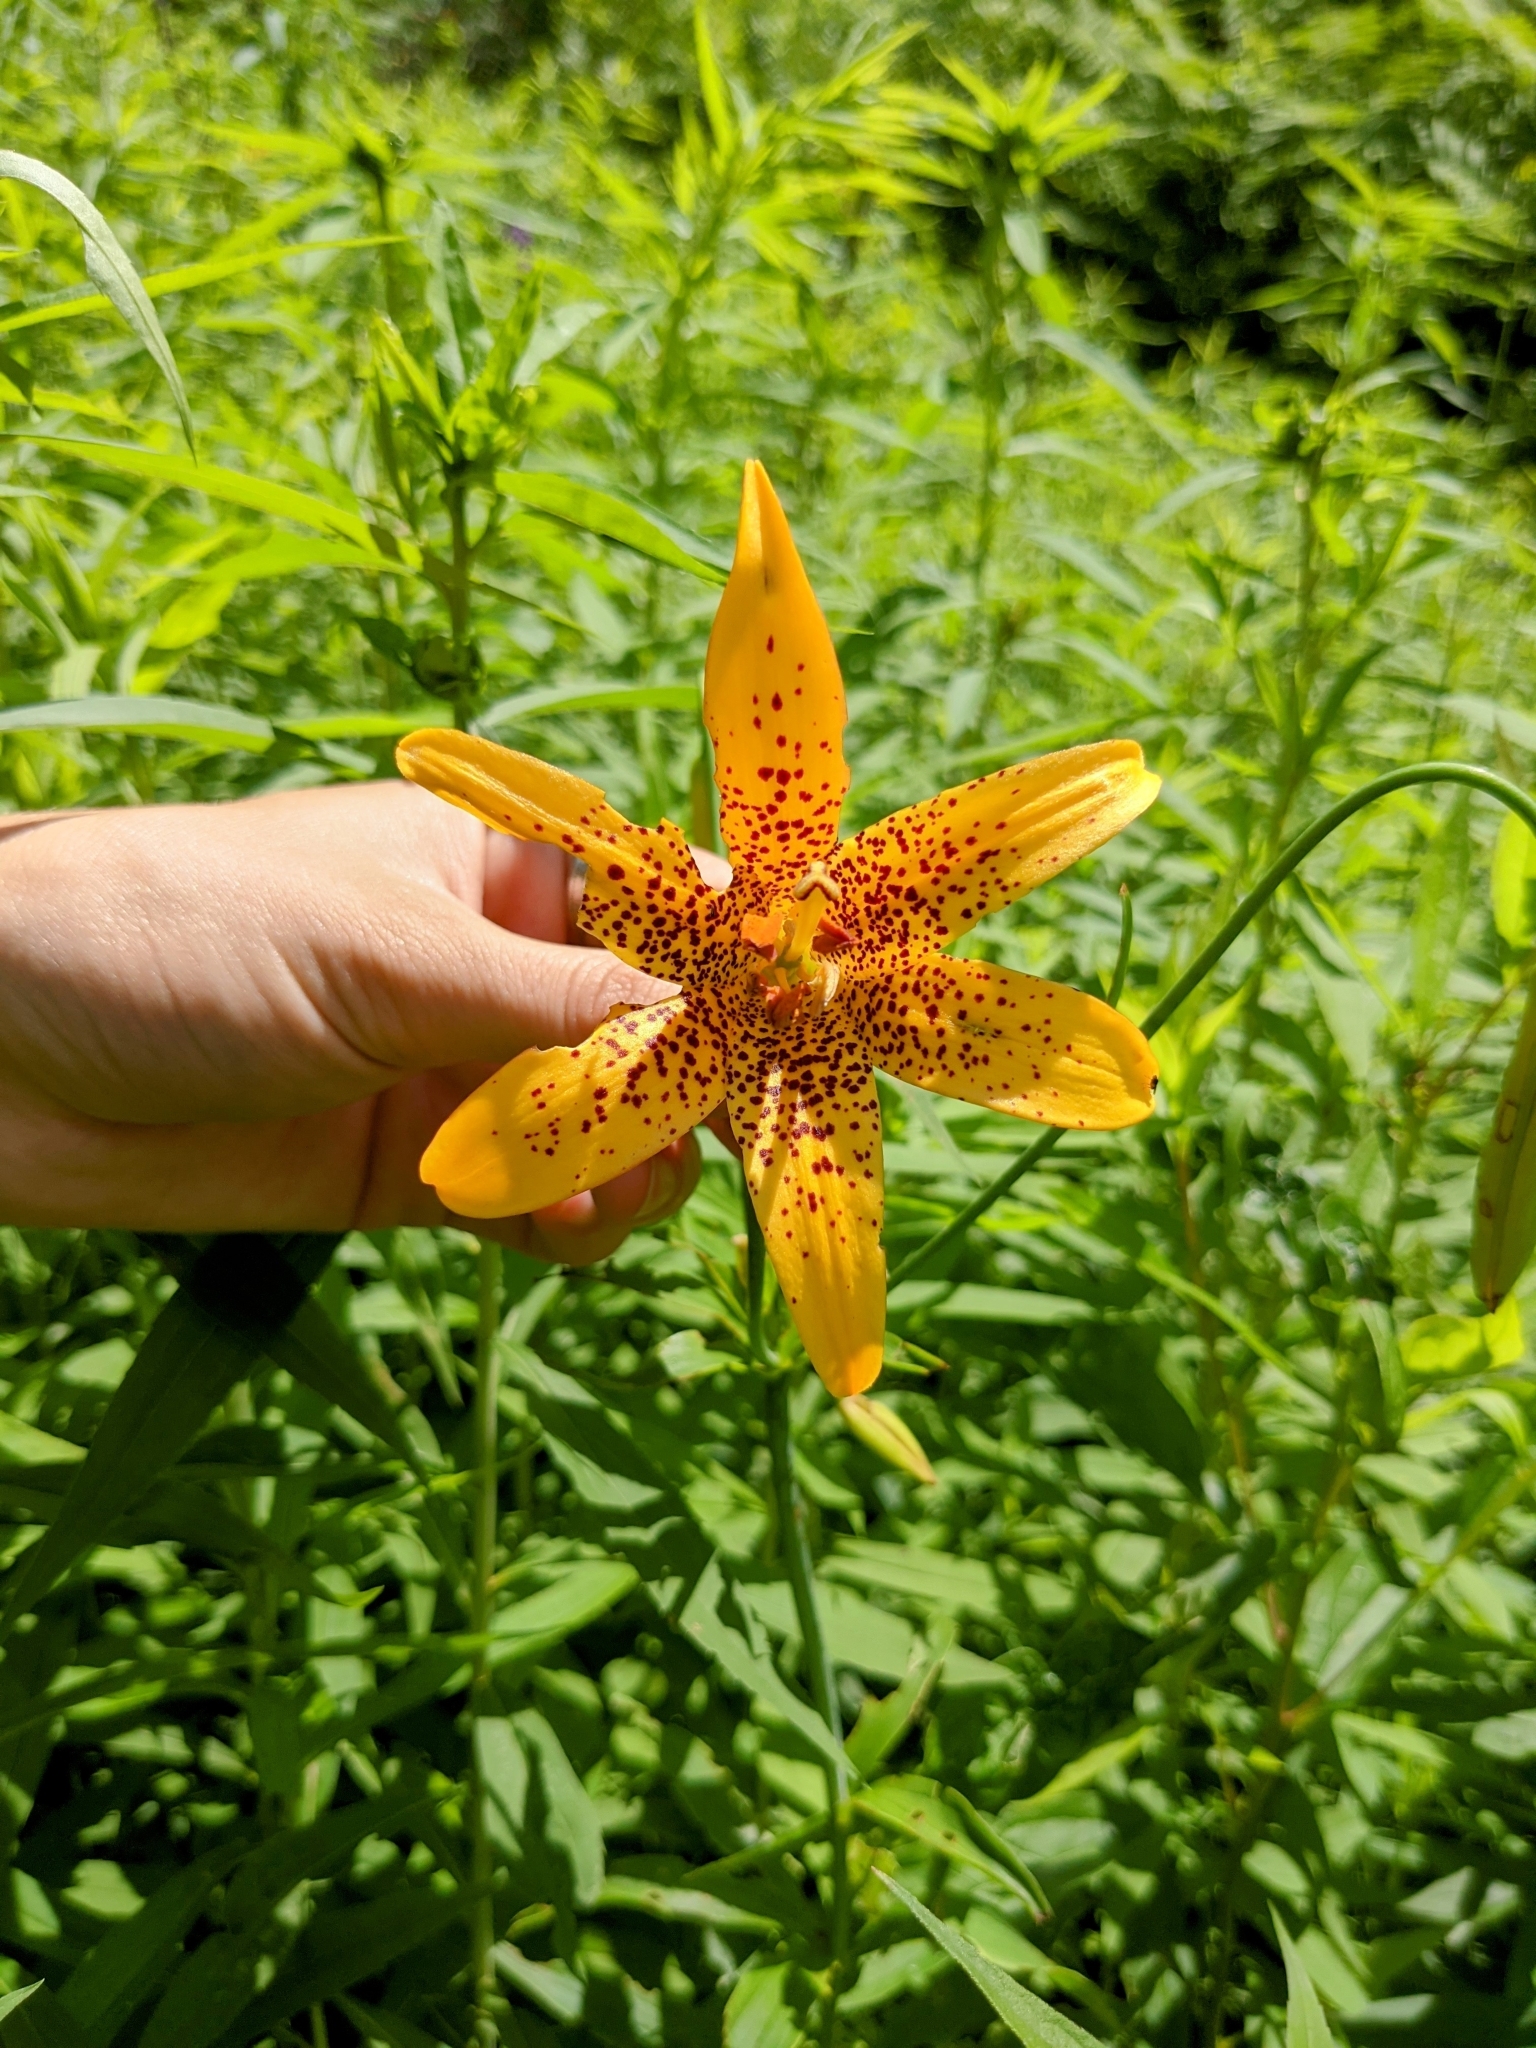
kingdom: Plantae
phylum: Tracheophyta
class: Liliopsida
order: Liliales
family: Liliaceae
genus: Lilium
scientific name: Lilium canadense
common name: Canada lily
